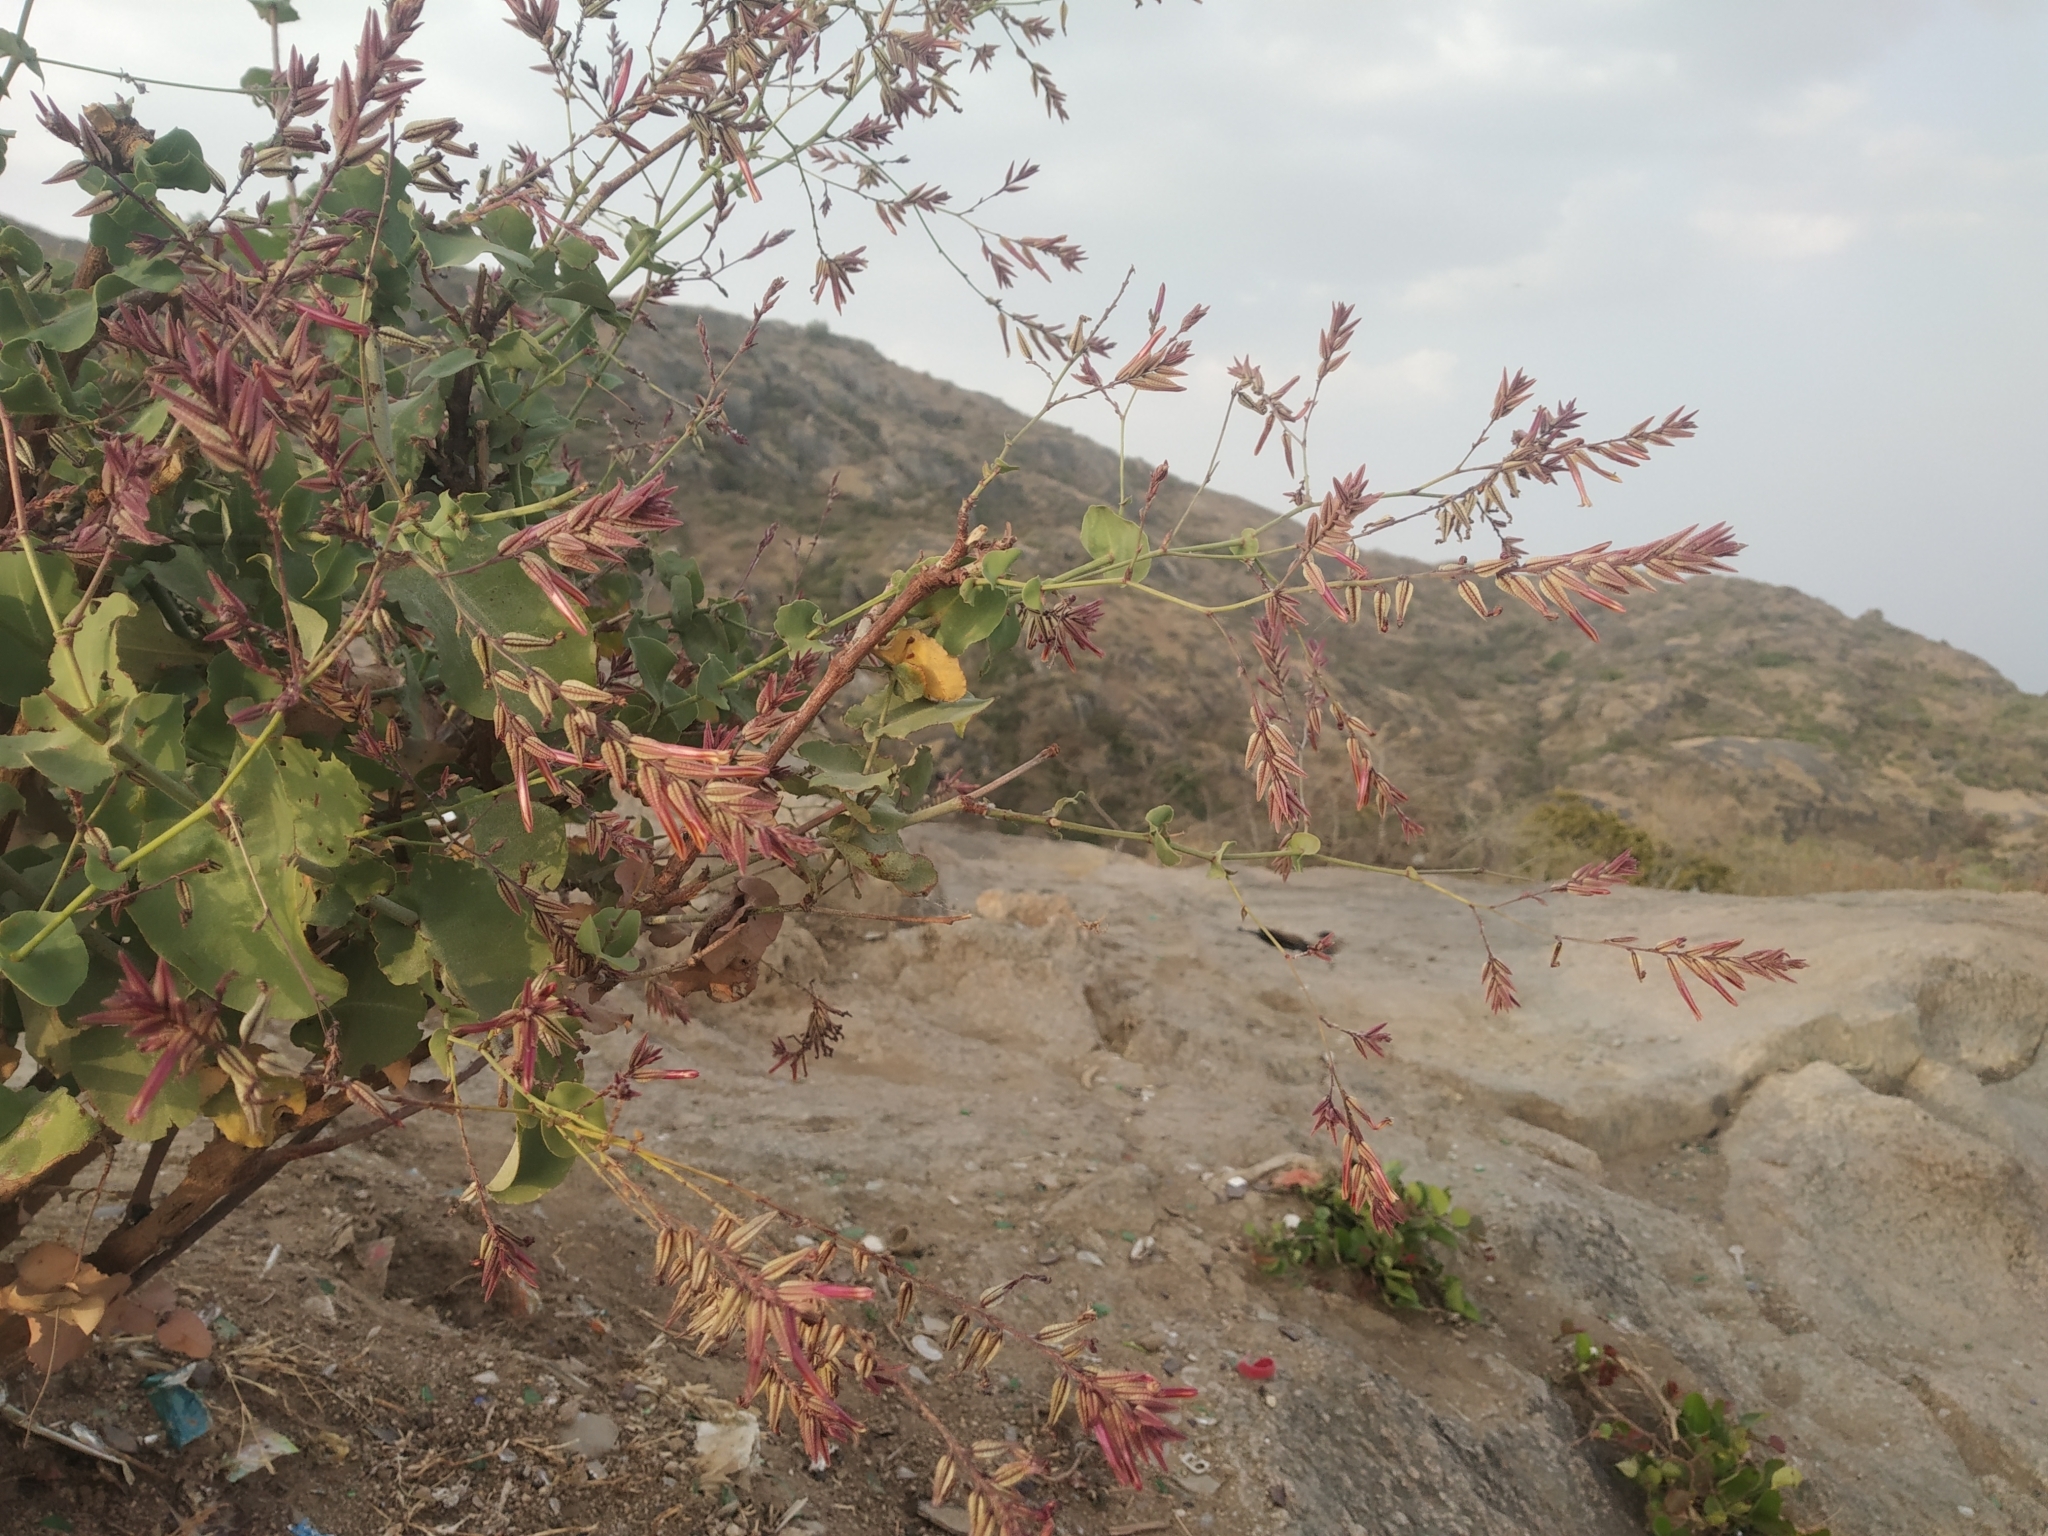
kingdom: Plantae
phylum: Tracheophyta
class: Magnoliopsida
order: Caryophyllales
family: Plumbaginaceae
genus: Dyerophytum
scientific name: Dyerophytum indicum
